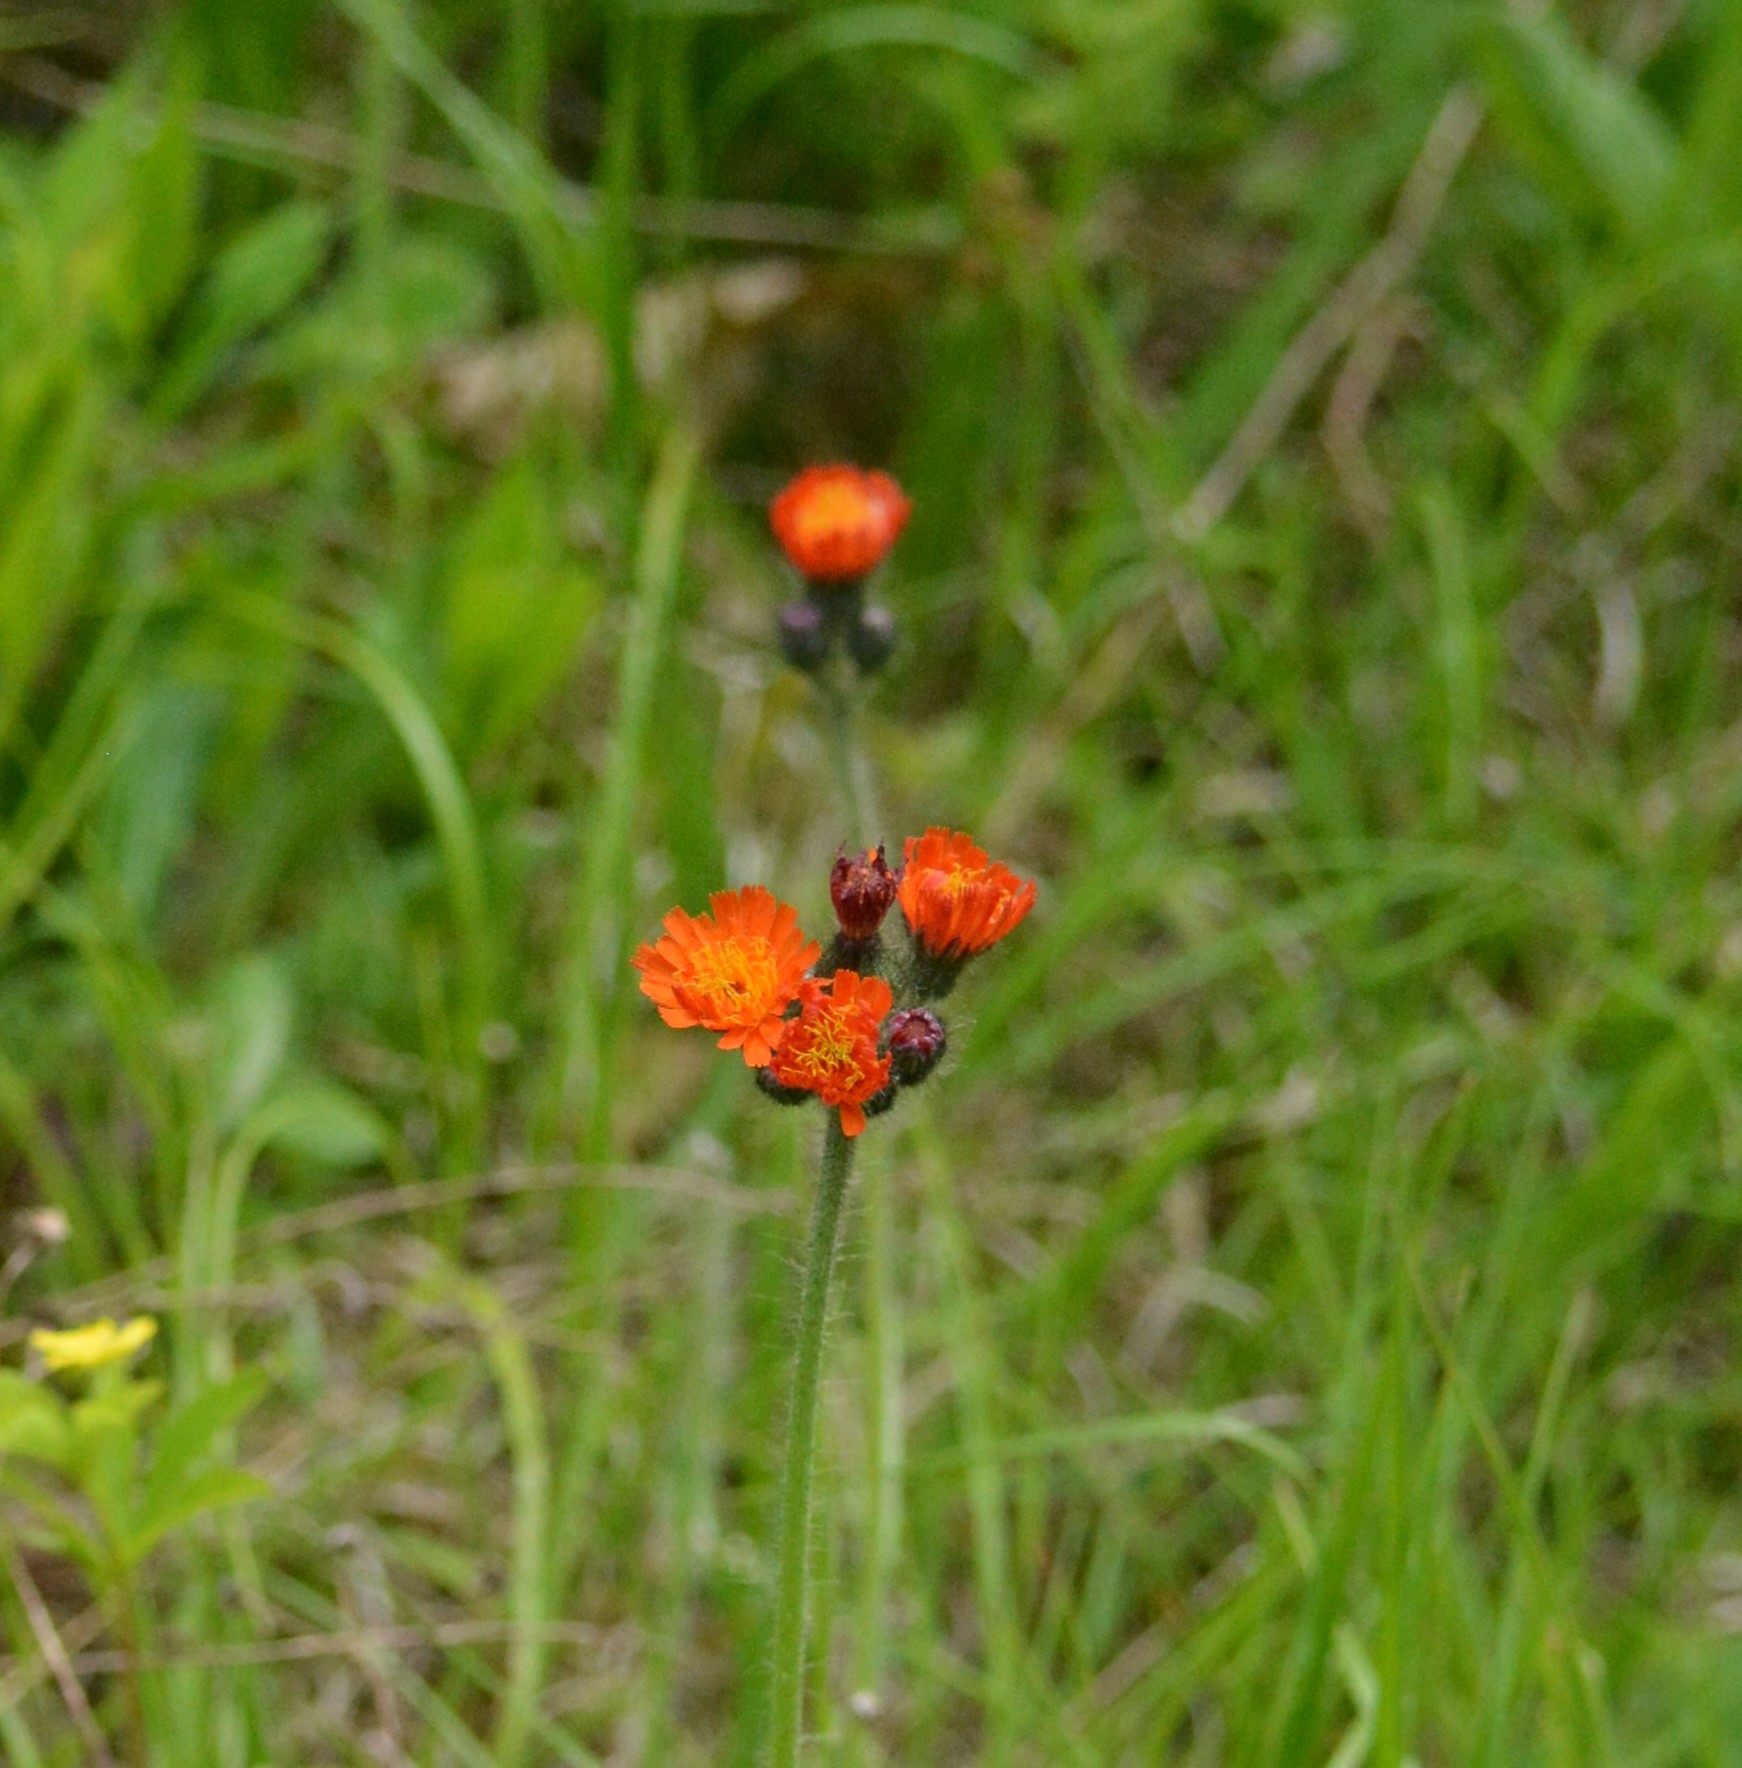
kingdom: Plantae
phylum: Tracheophyta
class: Magnoliopsida
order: Asterales
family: Asteraceae
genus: Pilosella
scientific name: Pilosella aurantiaca
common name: Fox-and-cubs
